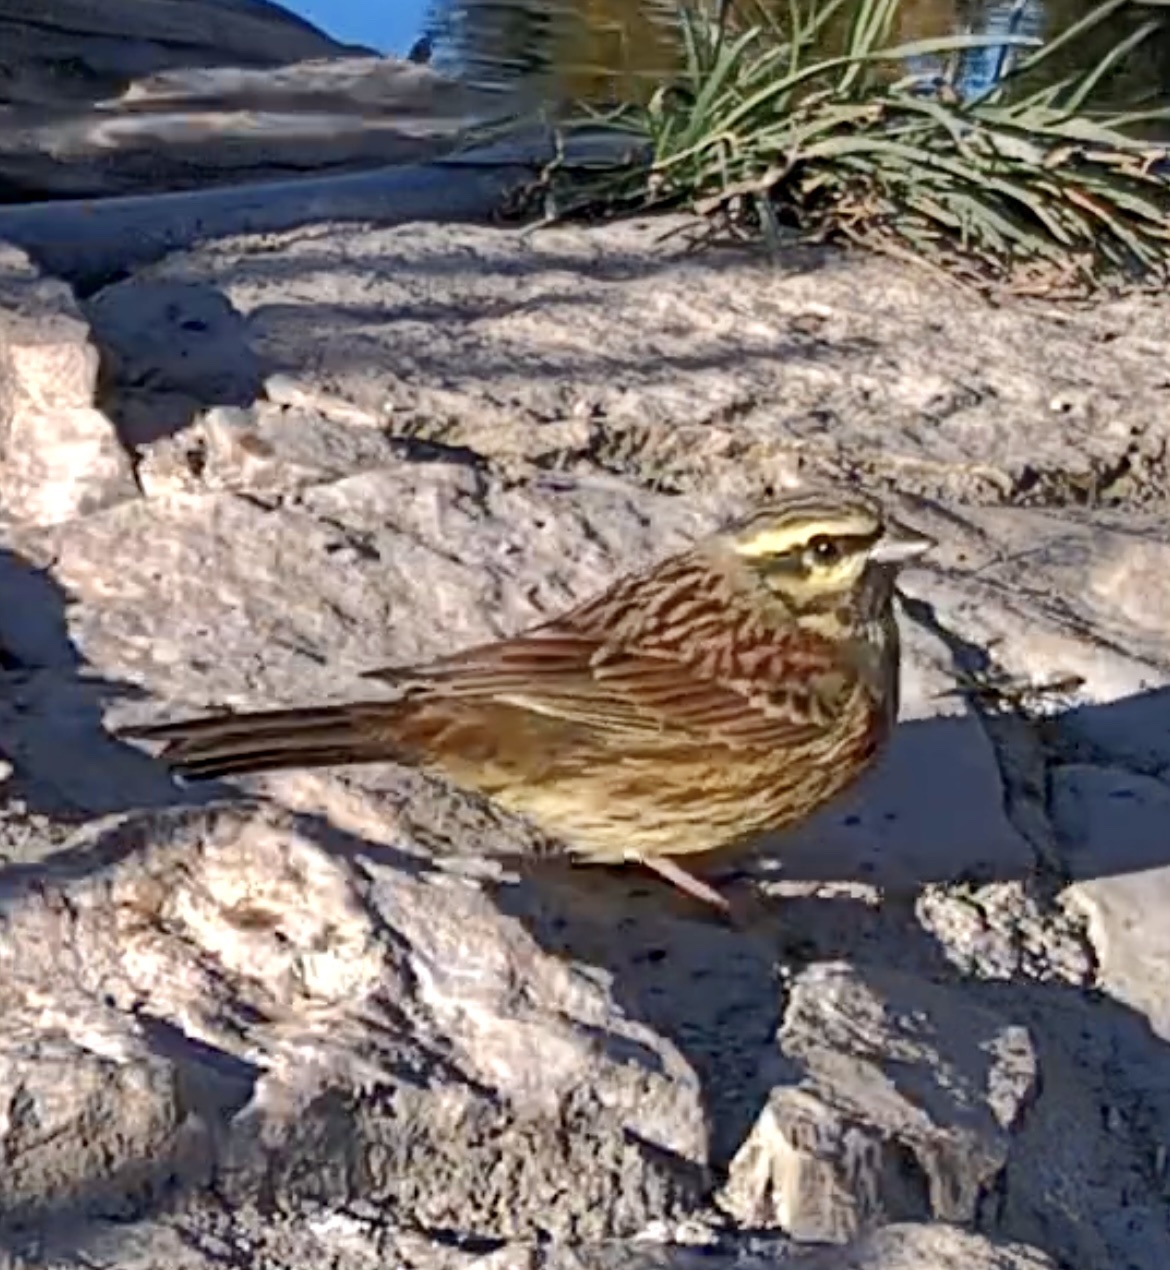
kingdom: Animalia
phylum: Chordata
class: Aves
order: Passeriformes
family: Emberizidae
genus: Emberiza
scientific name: Emberiza cirlus
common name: Cirl bunting
